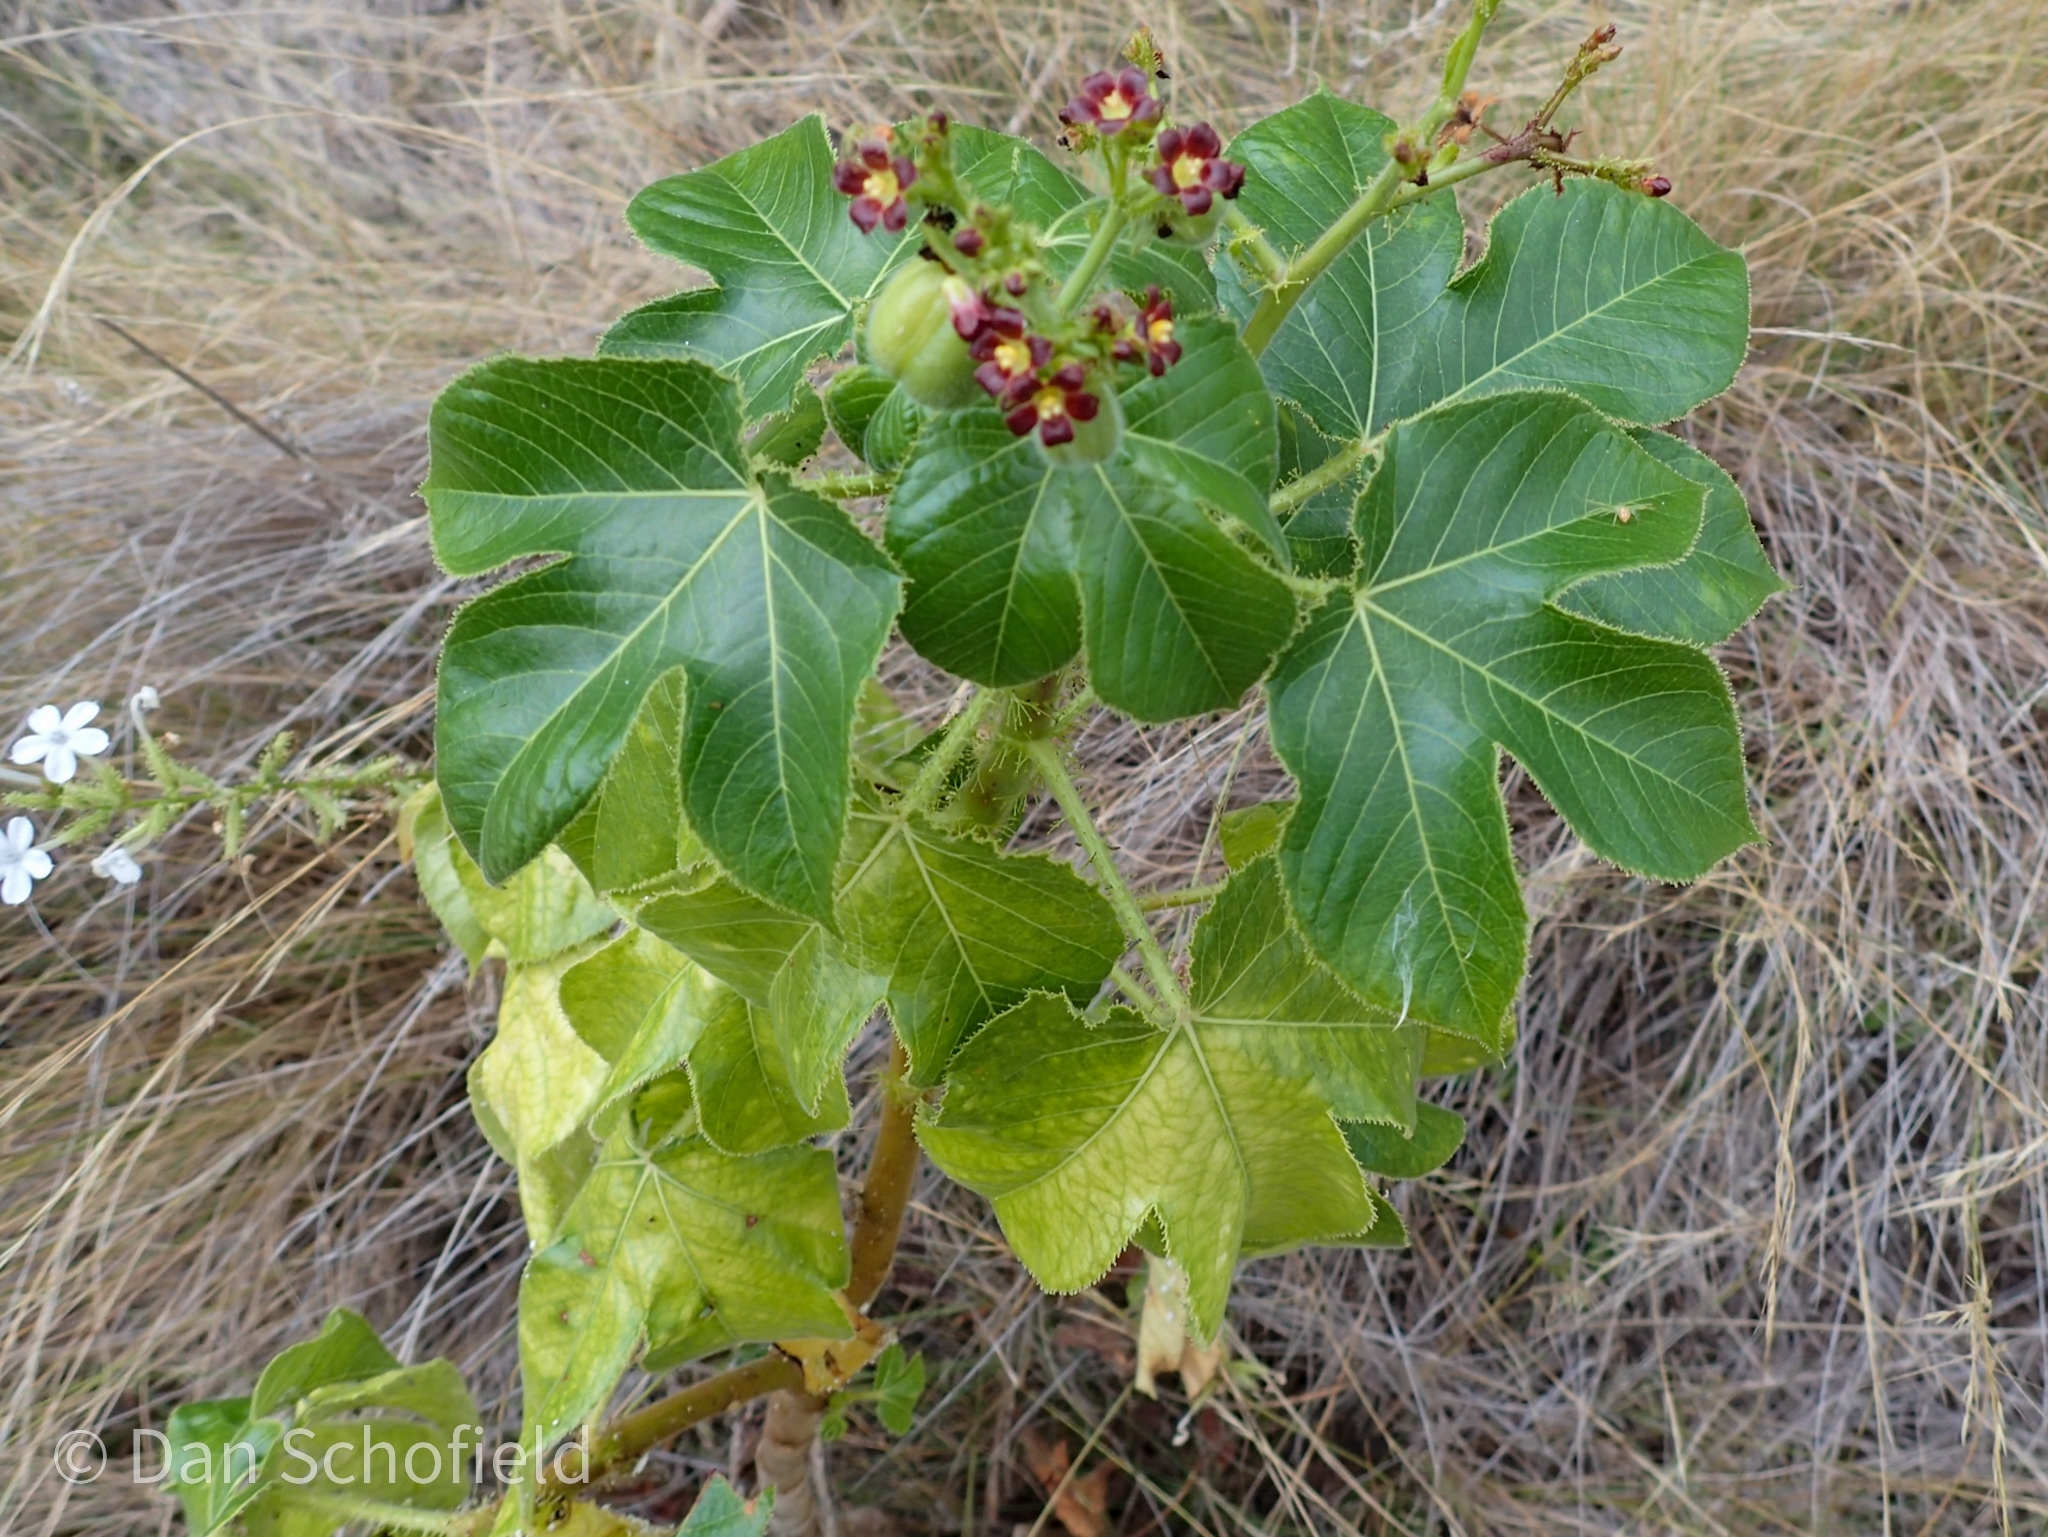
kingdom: Plantae
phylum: Tracheophyta
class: Magnoliopsida
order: Malpighiales
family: Euphorbiaceae
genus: Jatropha
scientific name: Jatropha gossypiifolia
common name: Bellyache bush
